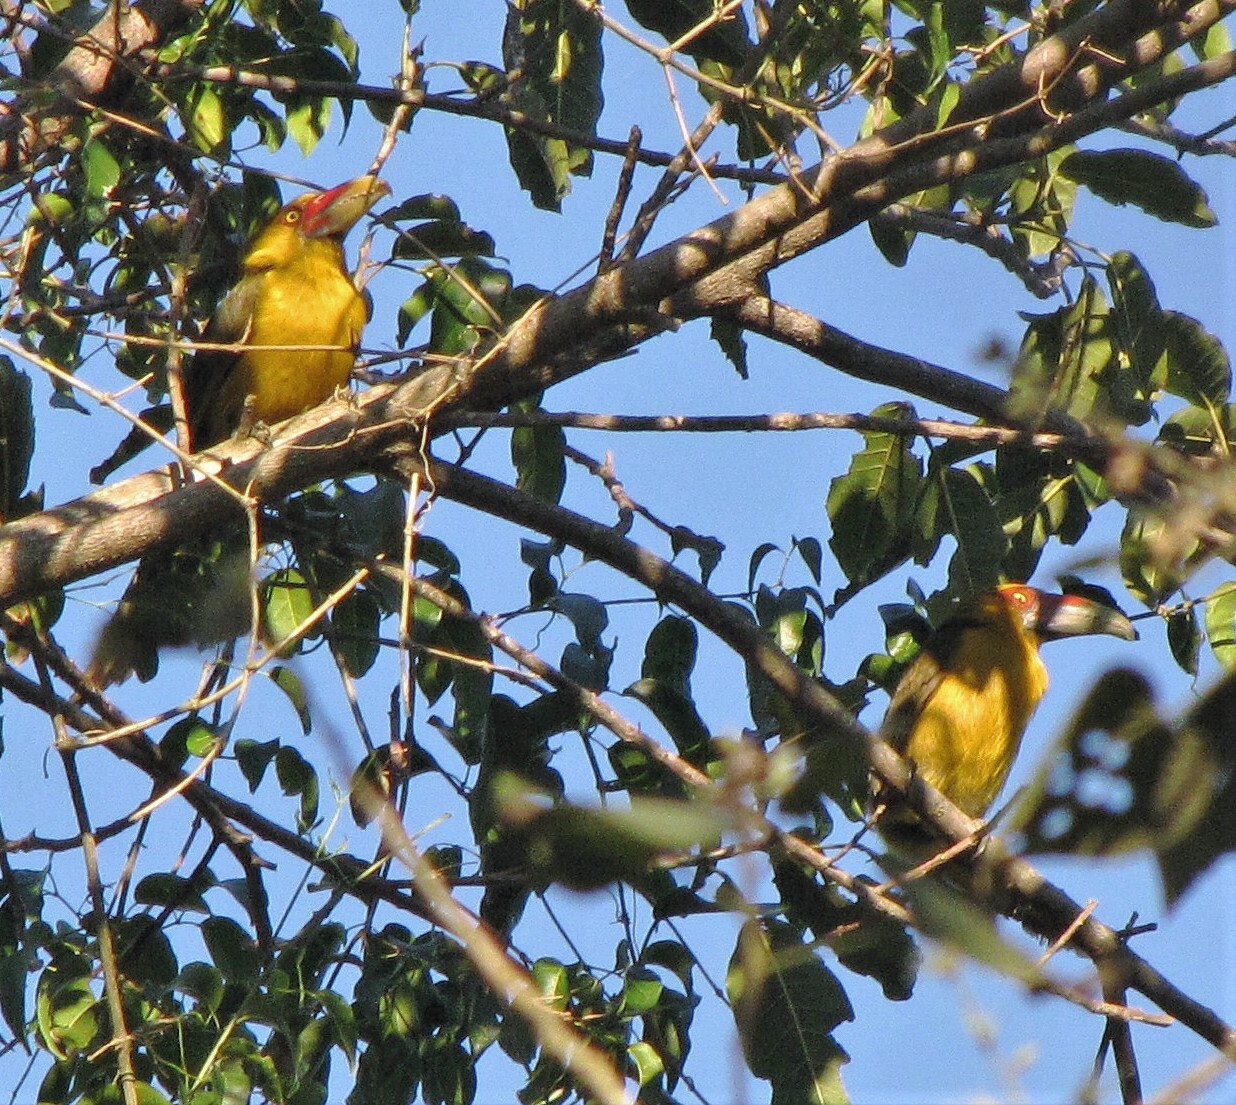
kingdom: Animalia
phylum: Chordata
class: Aves
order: Piciformes
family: Ramphastidae
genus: Pteroglossus
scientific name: Pteroglossus bailloni
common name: Saffron toucanet
